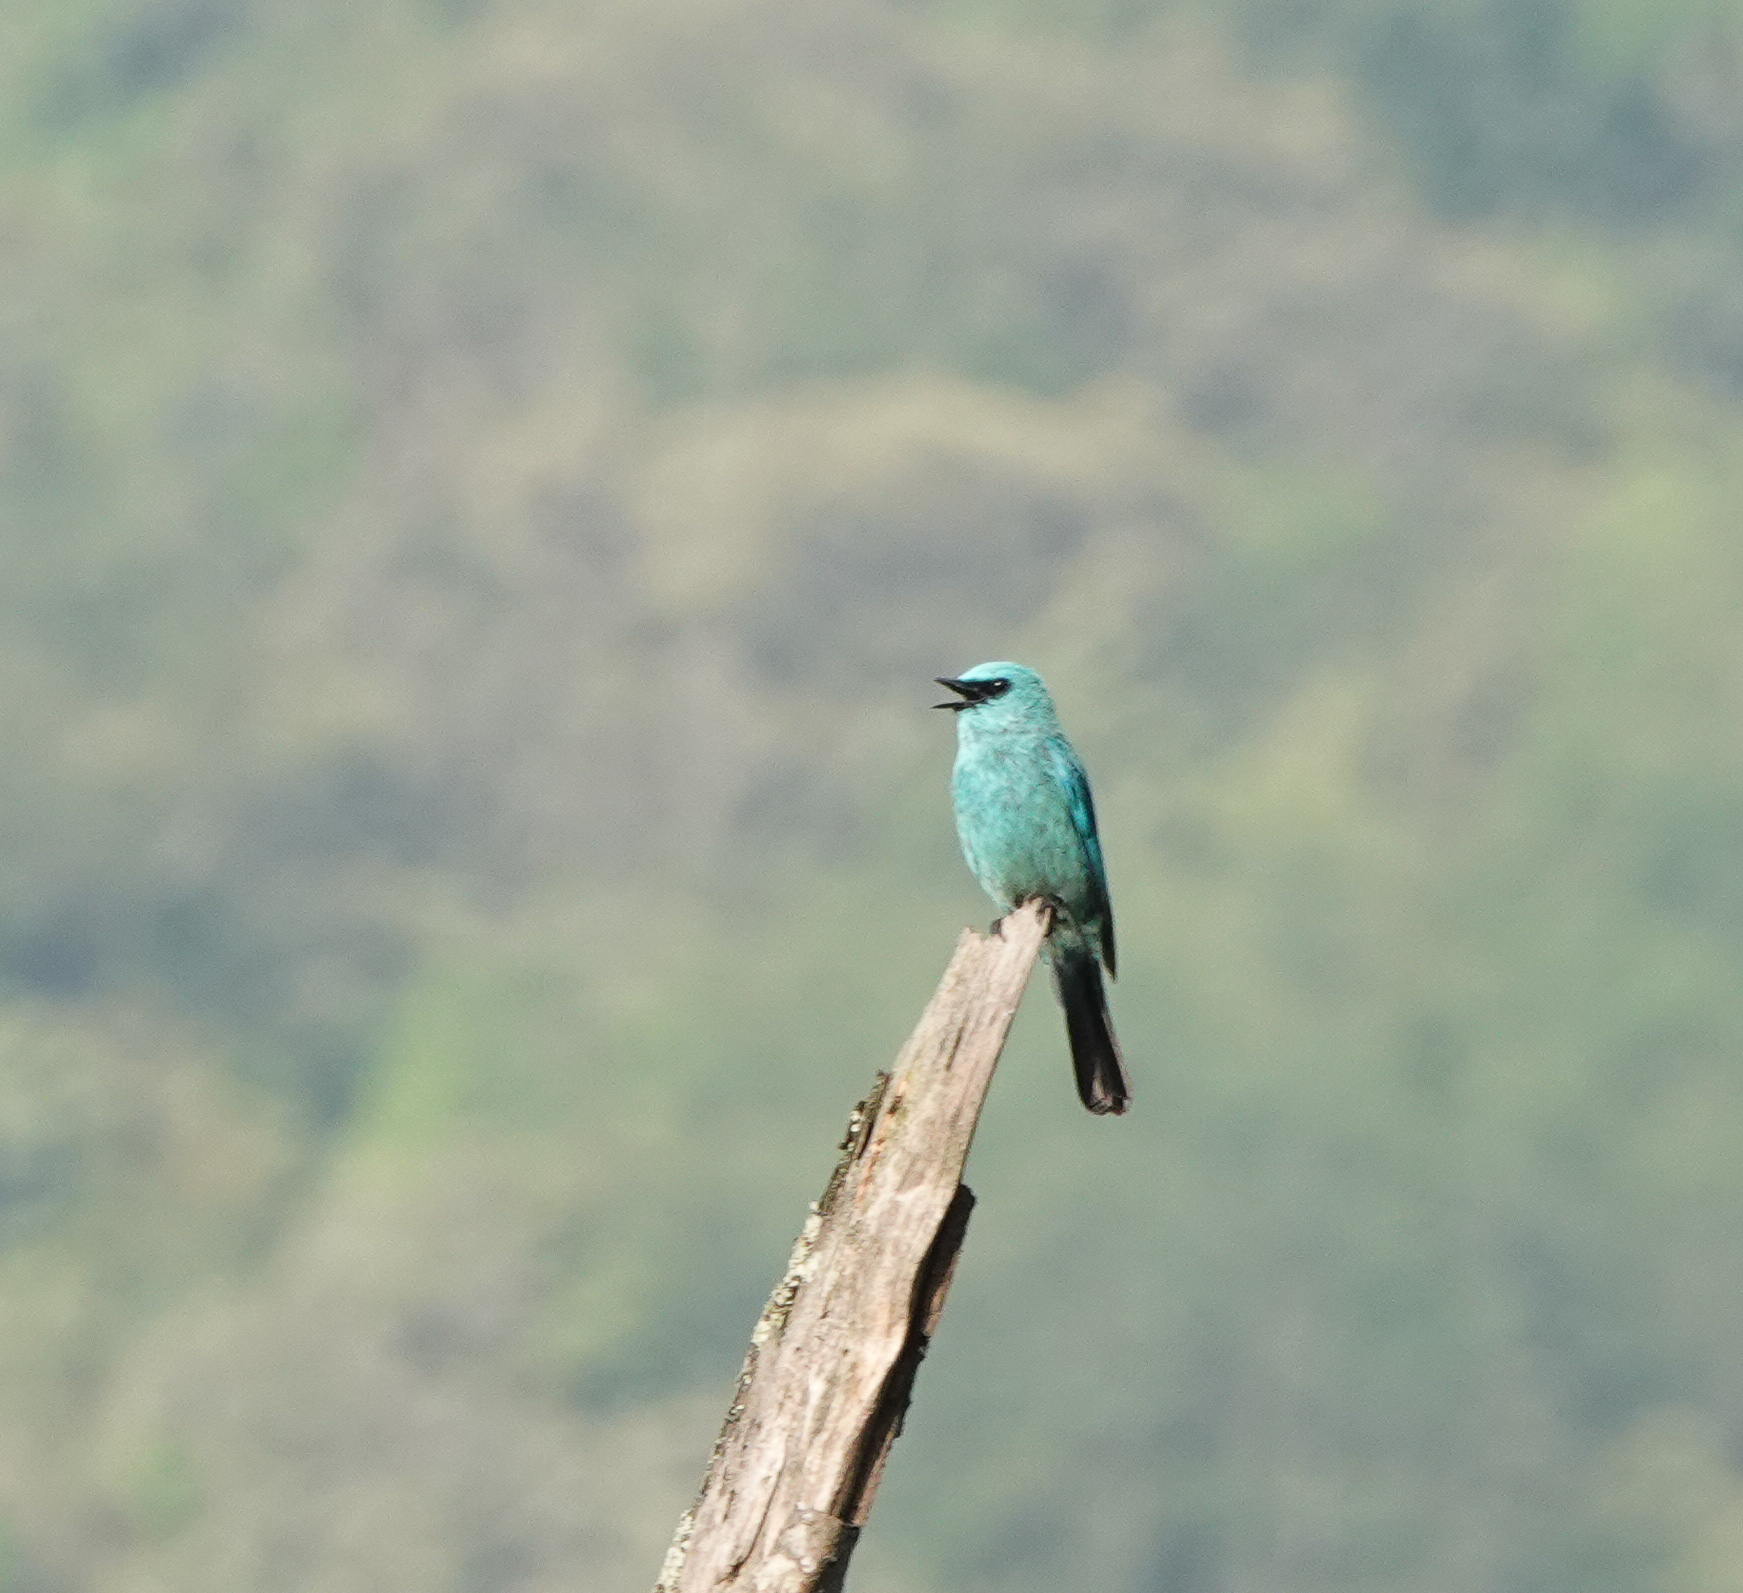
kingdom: Animalia
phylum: Chordata
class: Aves
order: Passeriformes
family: Muscicapidae
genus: Eumyias
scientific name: Eumyias thalassinus
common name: Verditer flycatcher
